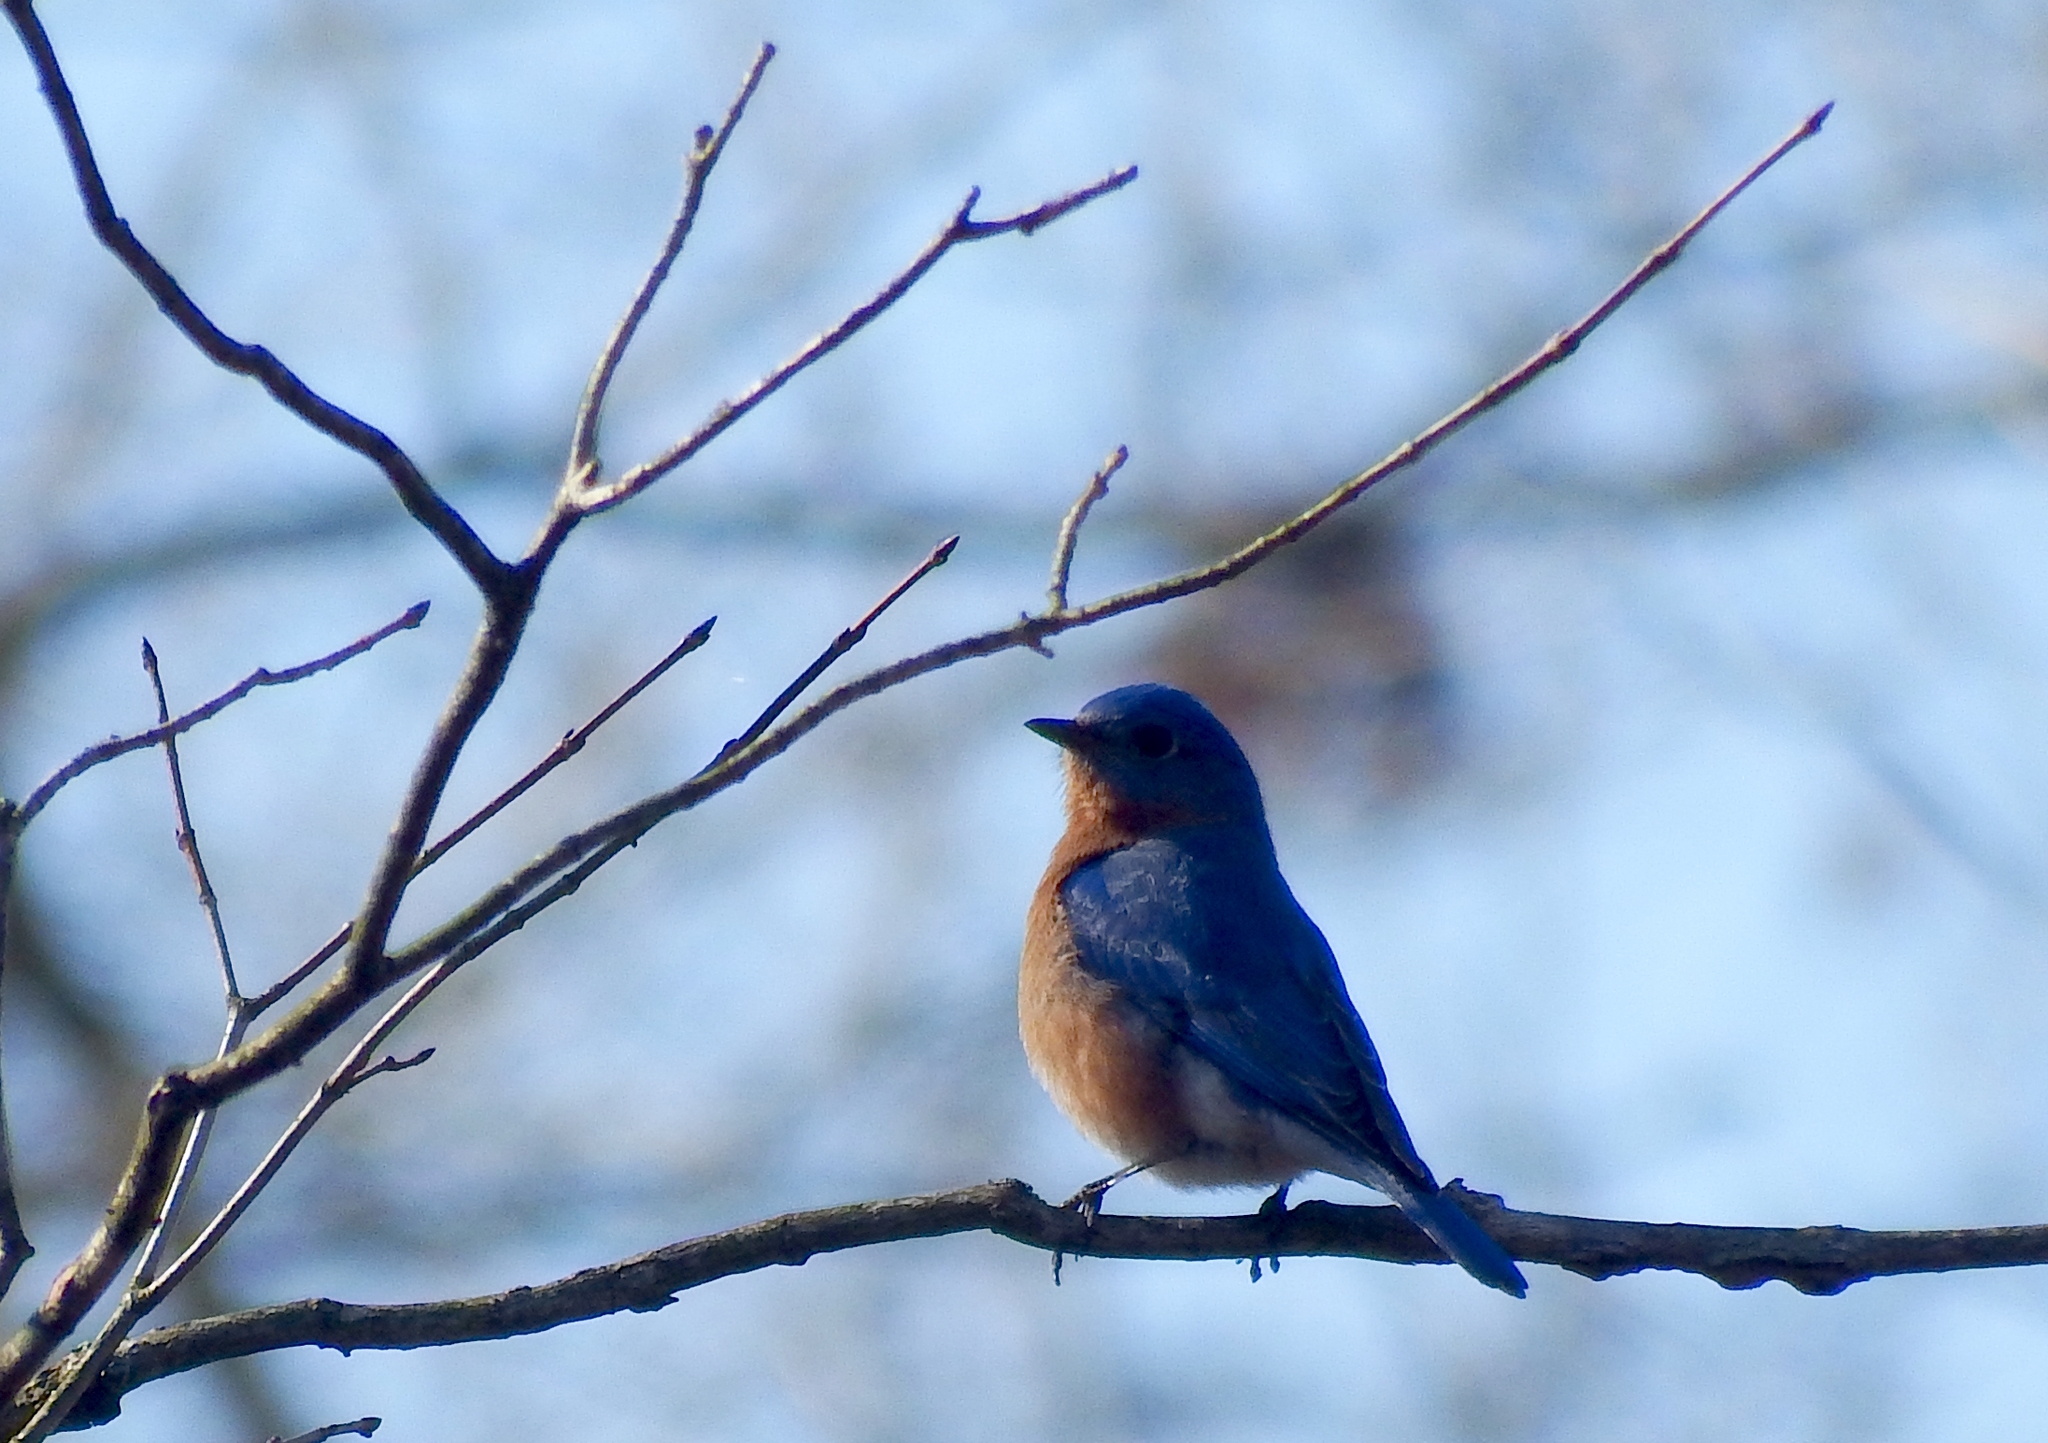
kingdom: Animalia
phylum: Chordata
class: Aves
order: Passeriformes
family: Turdidae
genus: Sialia
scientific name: Sialia sialis
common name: Eastern bluebird
